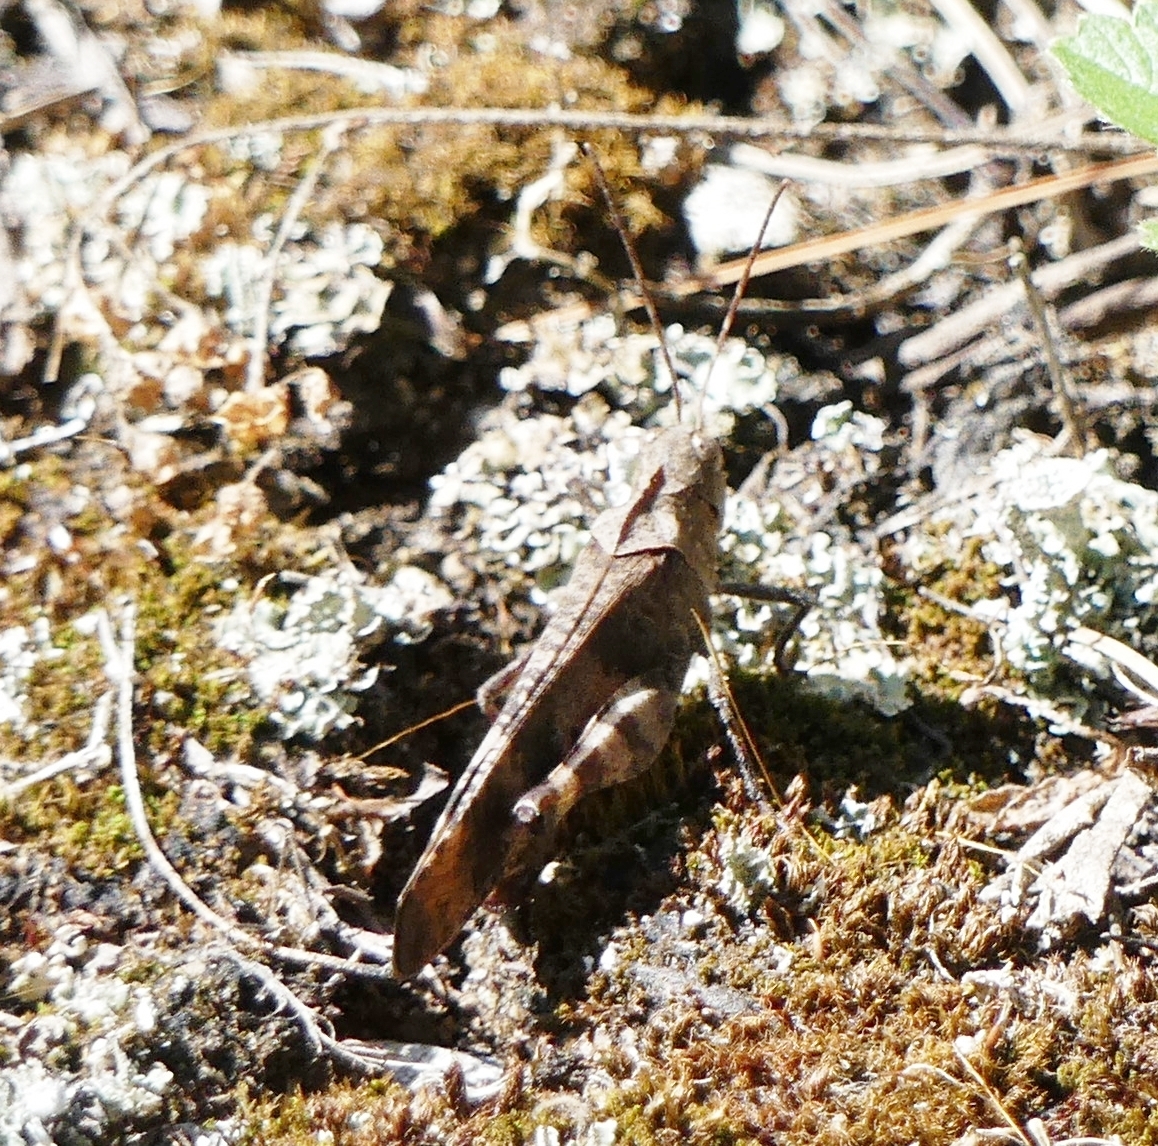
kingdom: Animalia
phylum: Arthropoda
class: Insecta
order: Orthoptera
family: Acrididae
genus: Spharagemon
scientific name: Spharagemon bolli
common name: Boll's grasshopper
